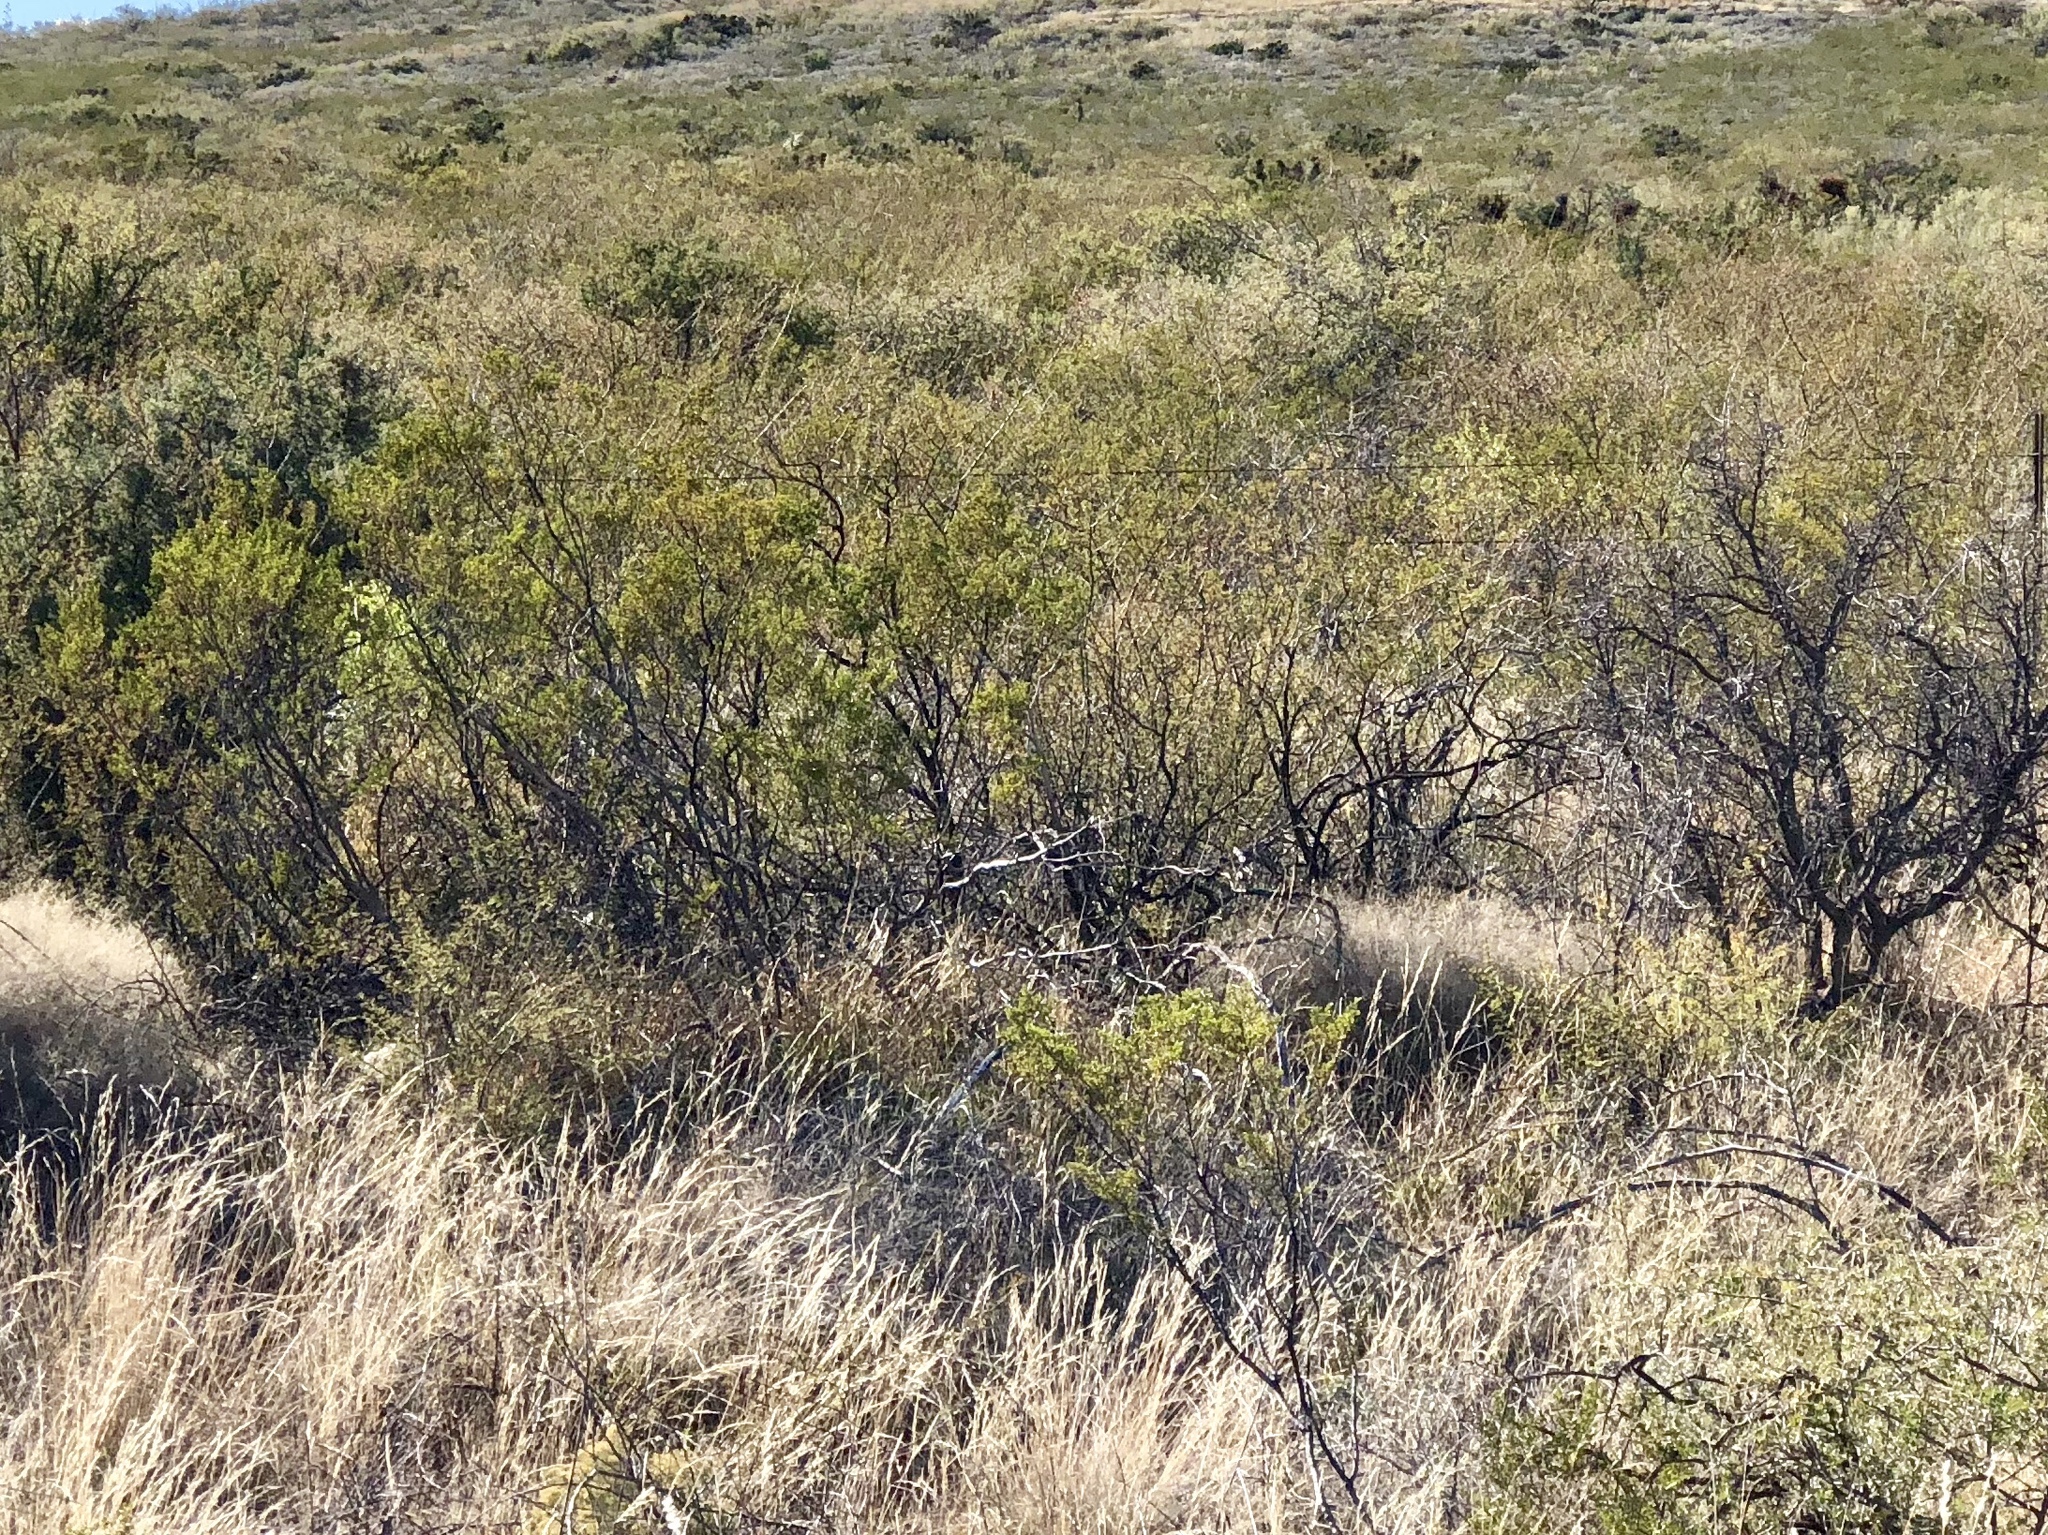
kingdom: Plantae
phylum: Tracheophyta
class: Magnoliopsida
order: Zygophyllales
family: Zygophyllaceae
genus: Larrea
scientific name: Larrea tridentata
